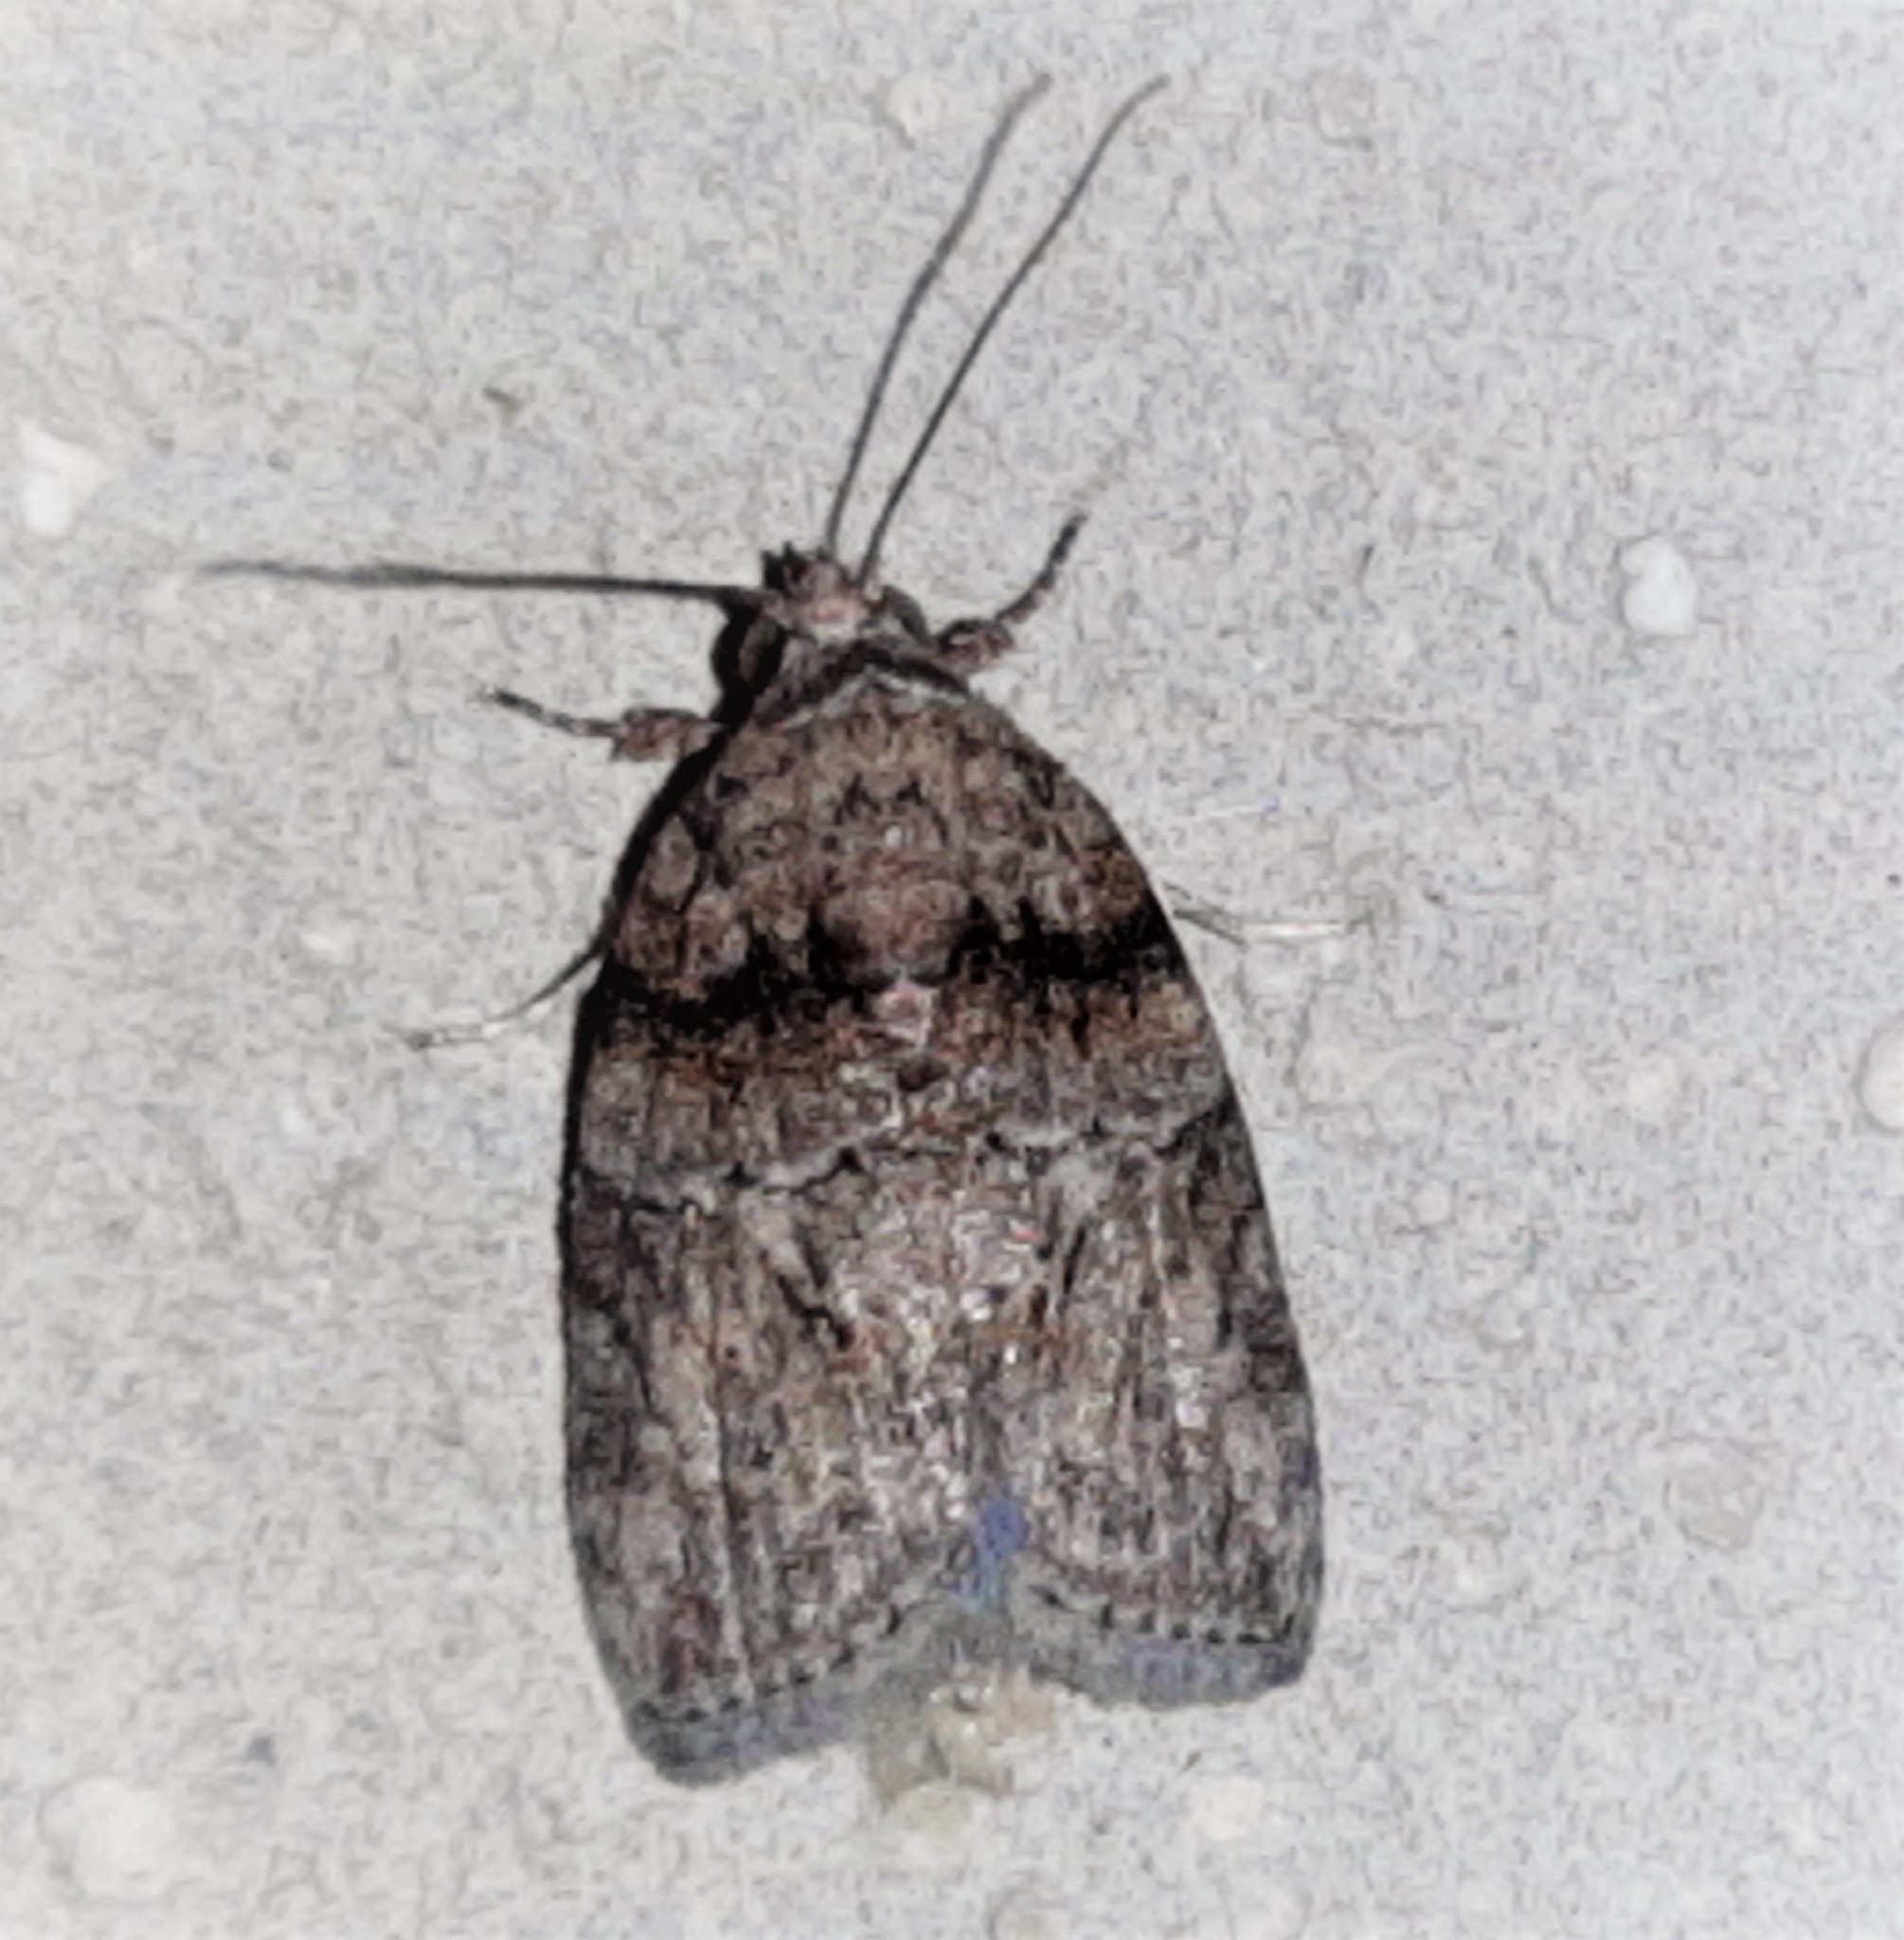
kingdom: Animalia
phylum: Arthropoda
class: Insecta
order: Lepidoptera
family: Nolidae
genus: Garella
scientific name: Garella nilotica
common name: Black-olive caterpillar moth
